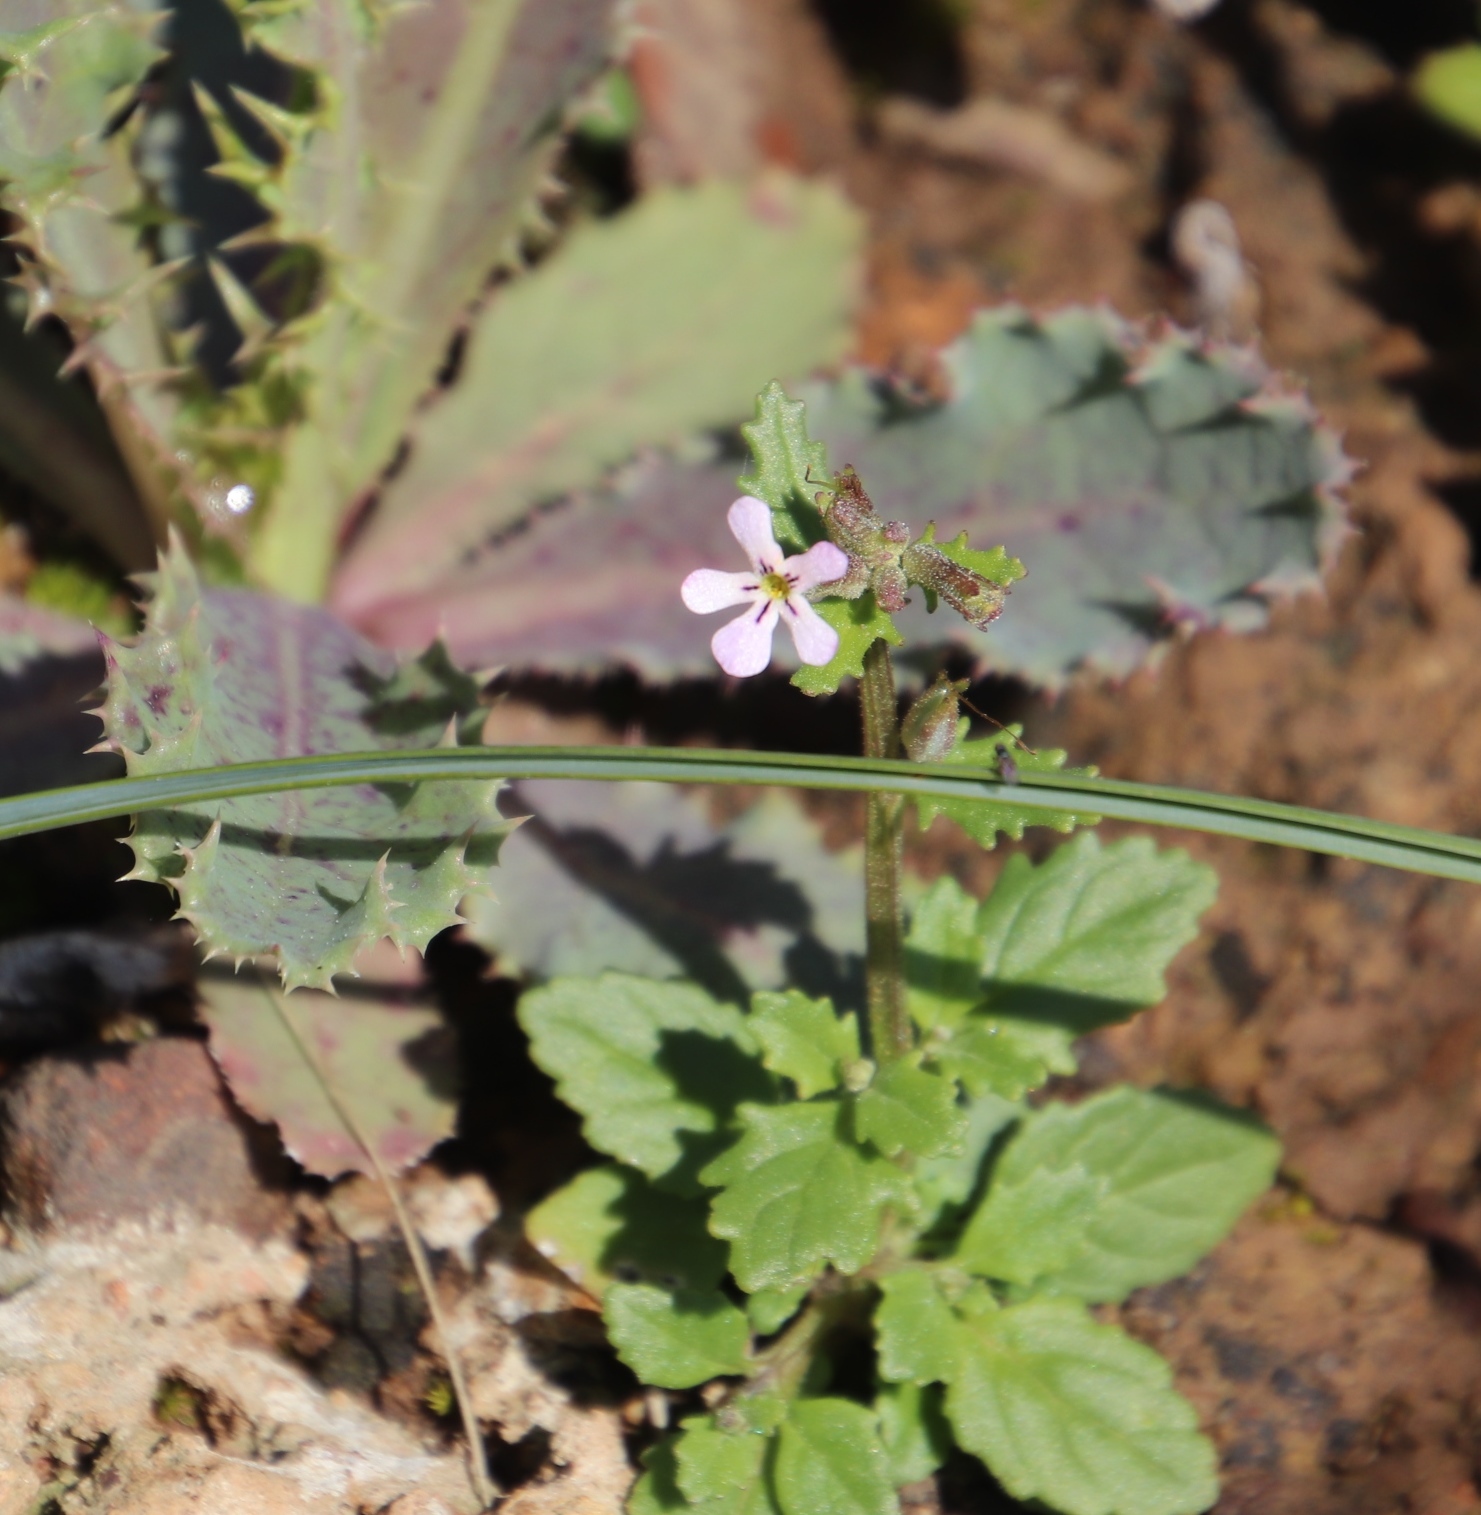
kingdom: Plantae
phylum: Tracheophyta
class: Magnoliopsida
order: Lamiales
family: Scrophulariaceae
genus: Lyperia
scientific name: Lyperia violacea
